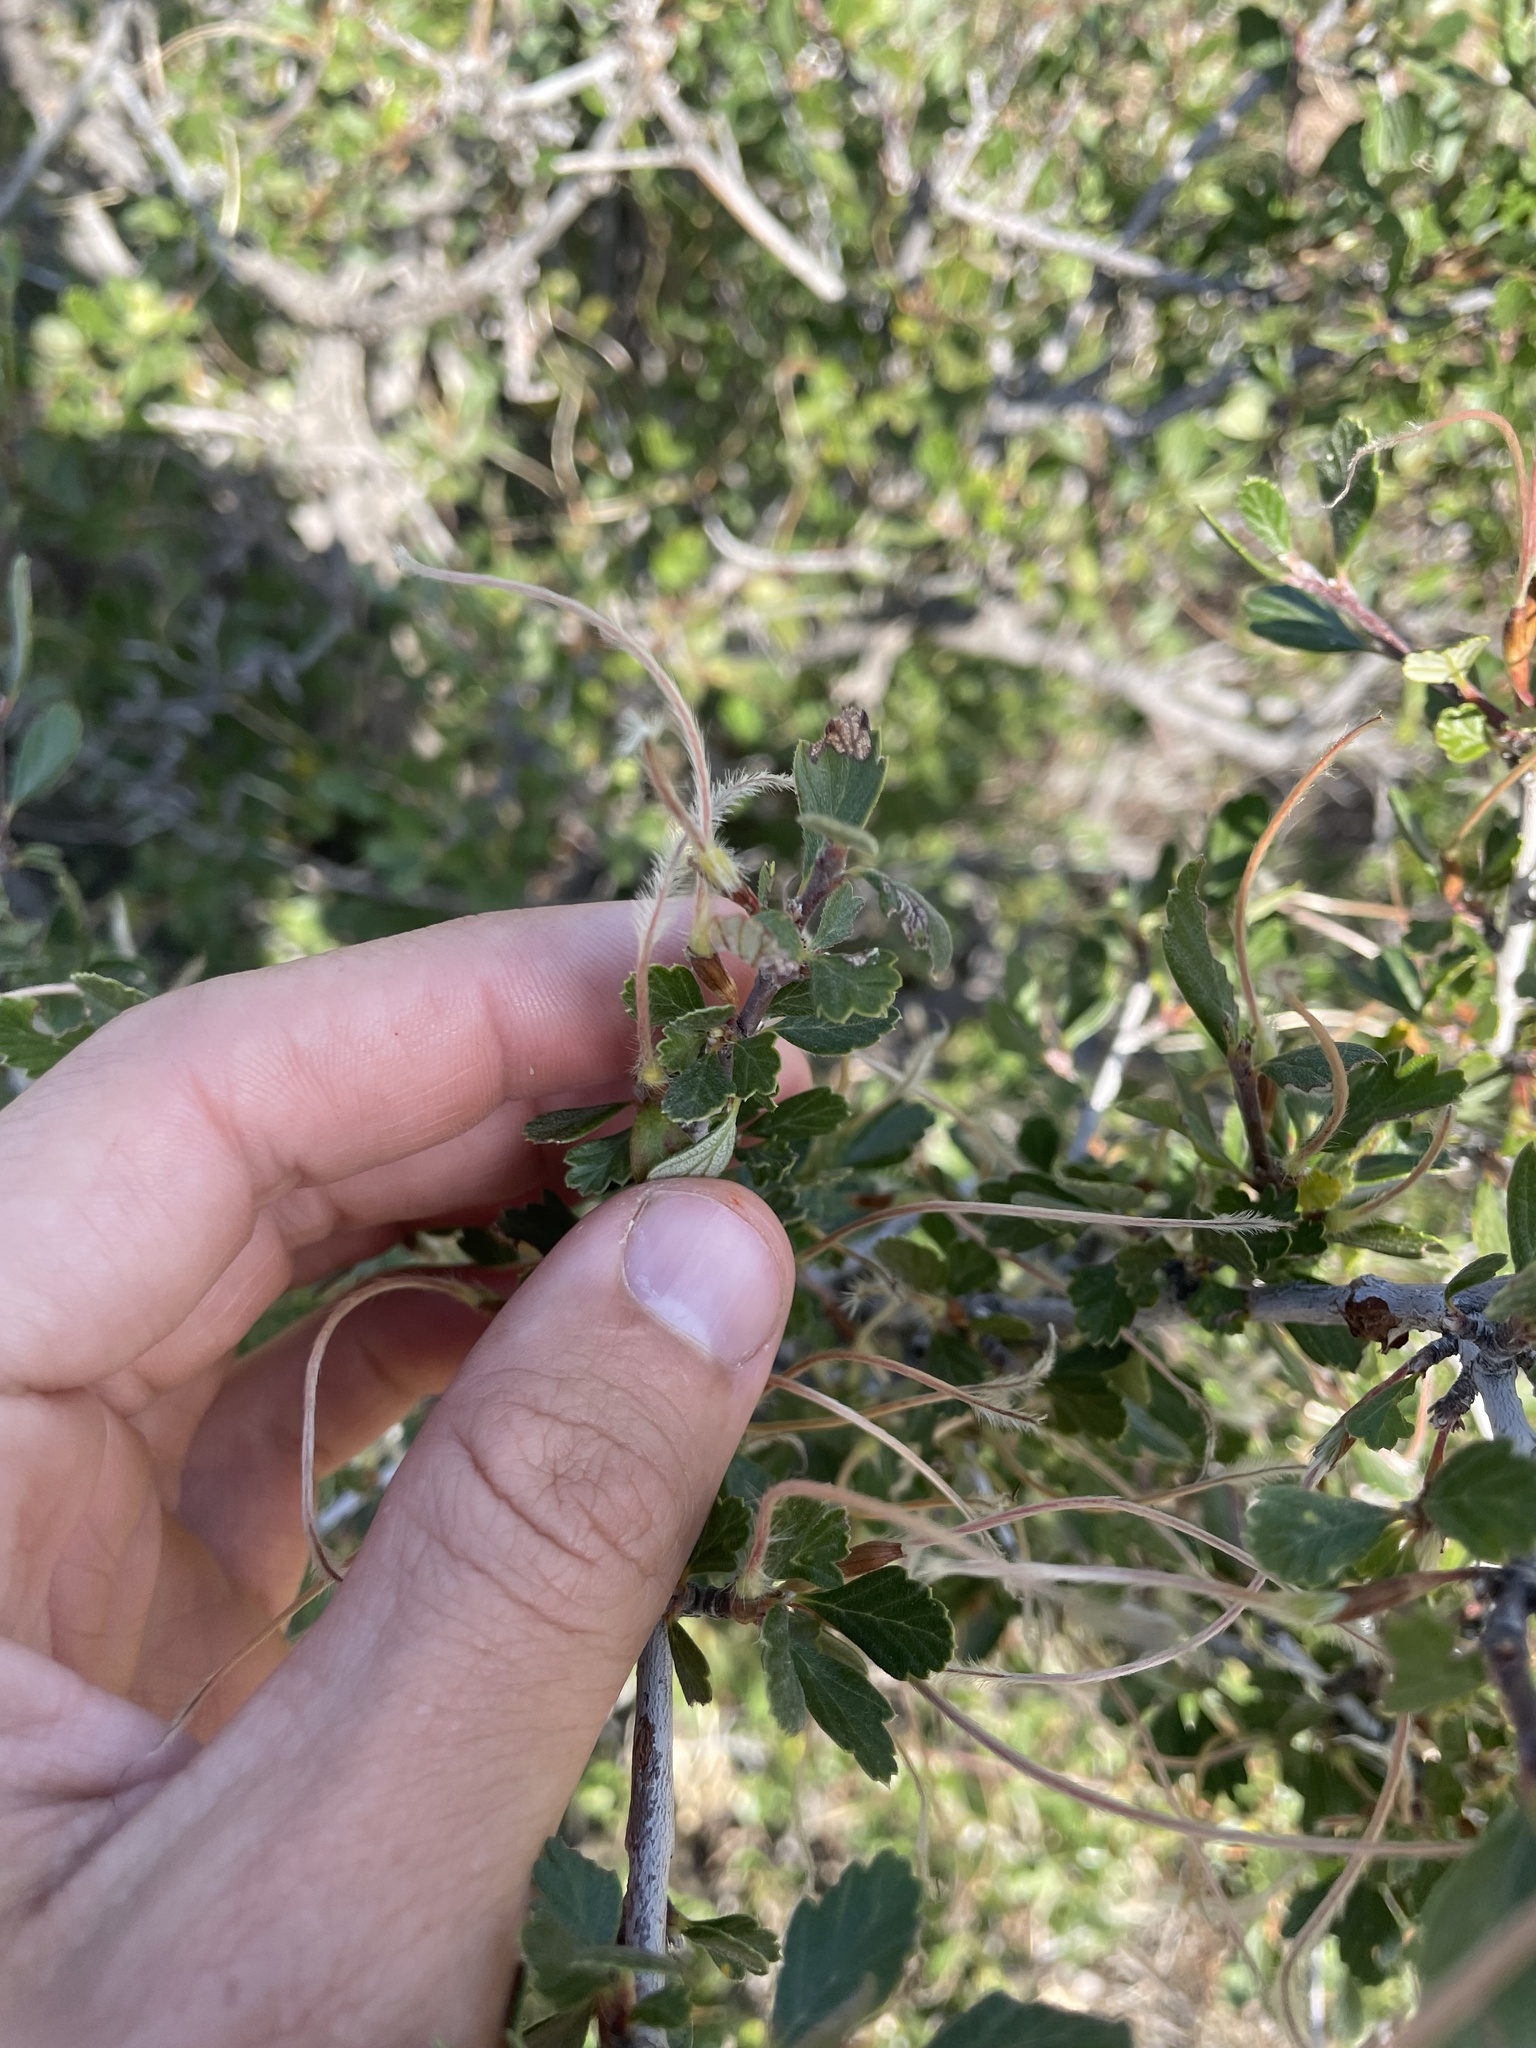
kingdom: Plantae
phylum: Tracheophyta
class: Magnoliopsida
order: Rosales
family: Rosaceae
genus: Cercocarpus
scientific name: Cercocarpus montanus
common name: Alder-leaf cercocarpus
